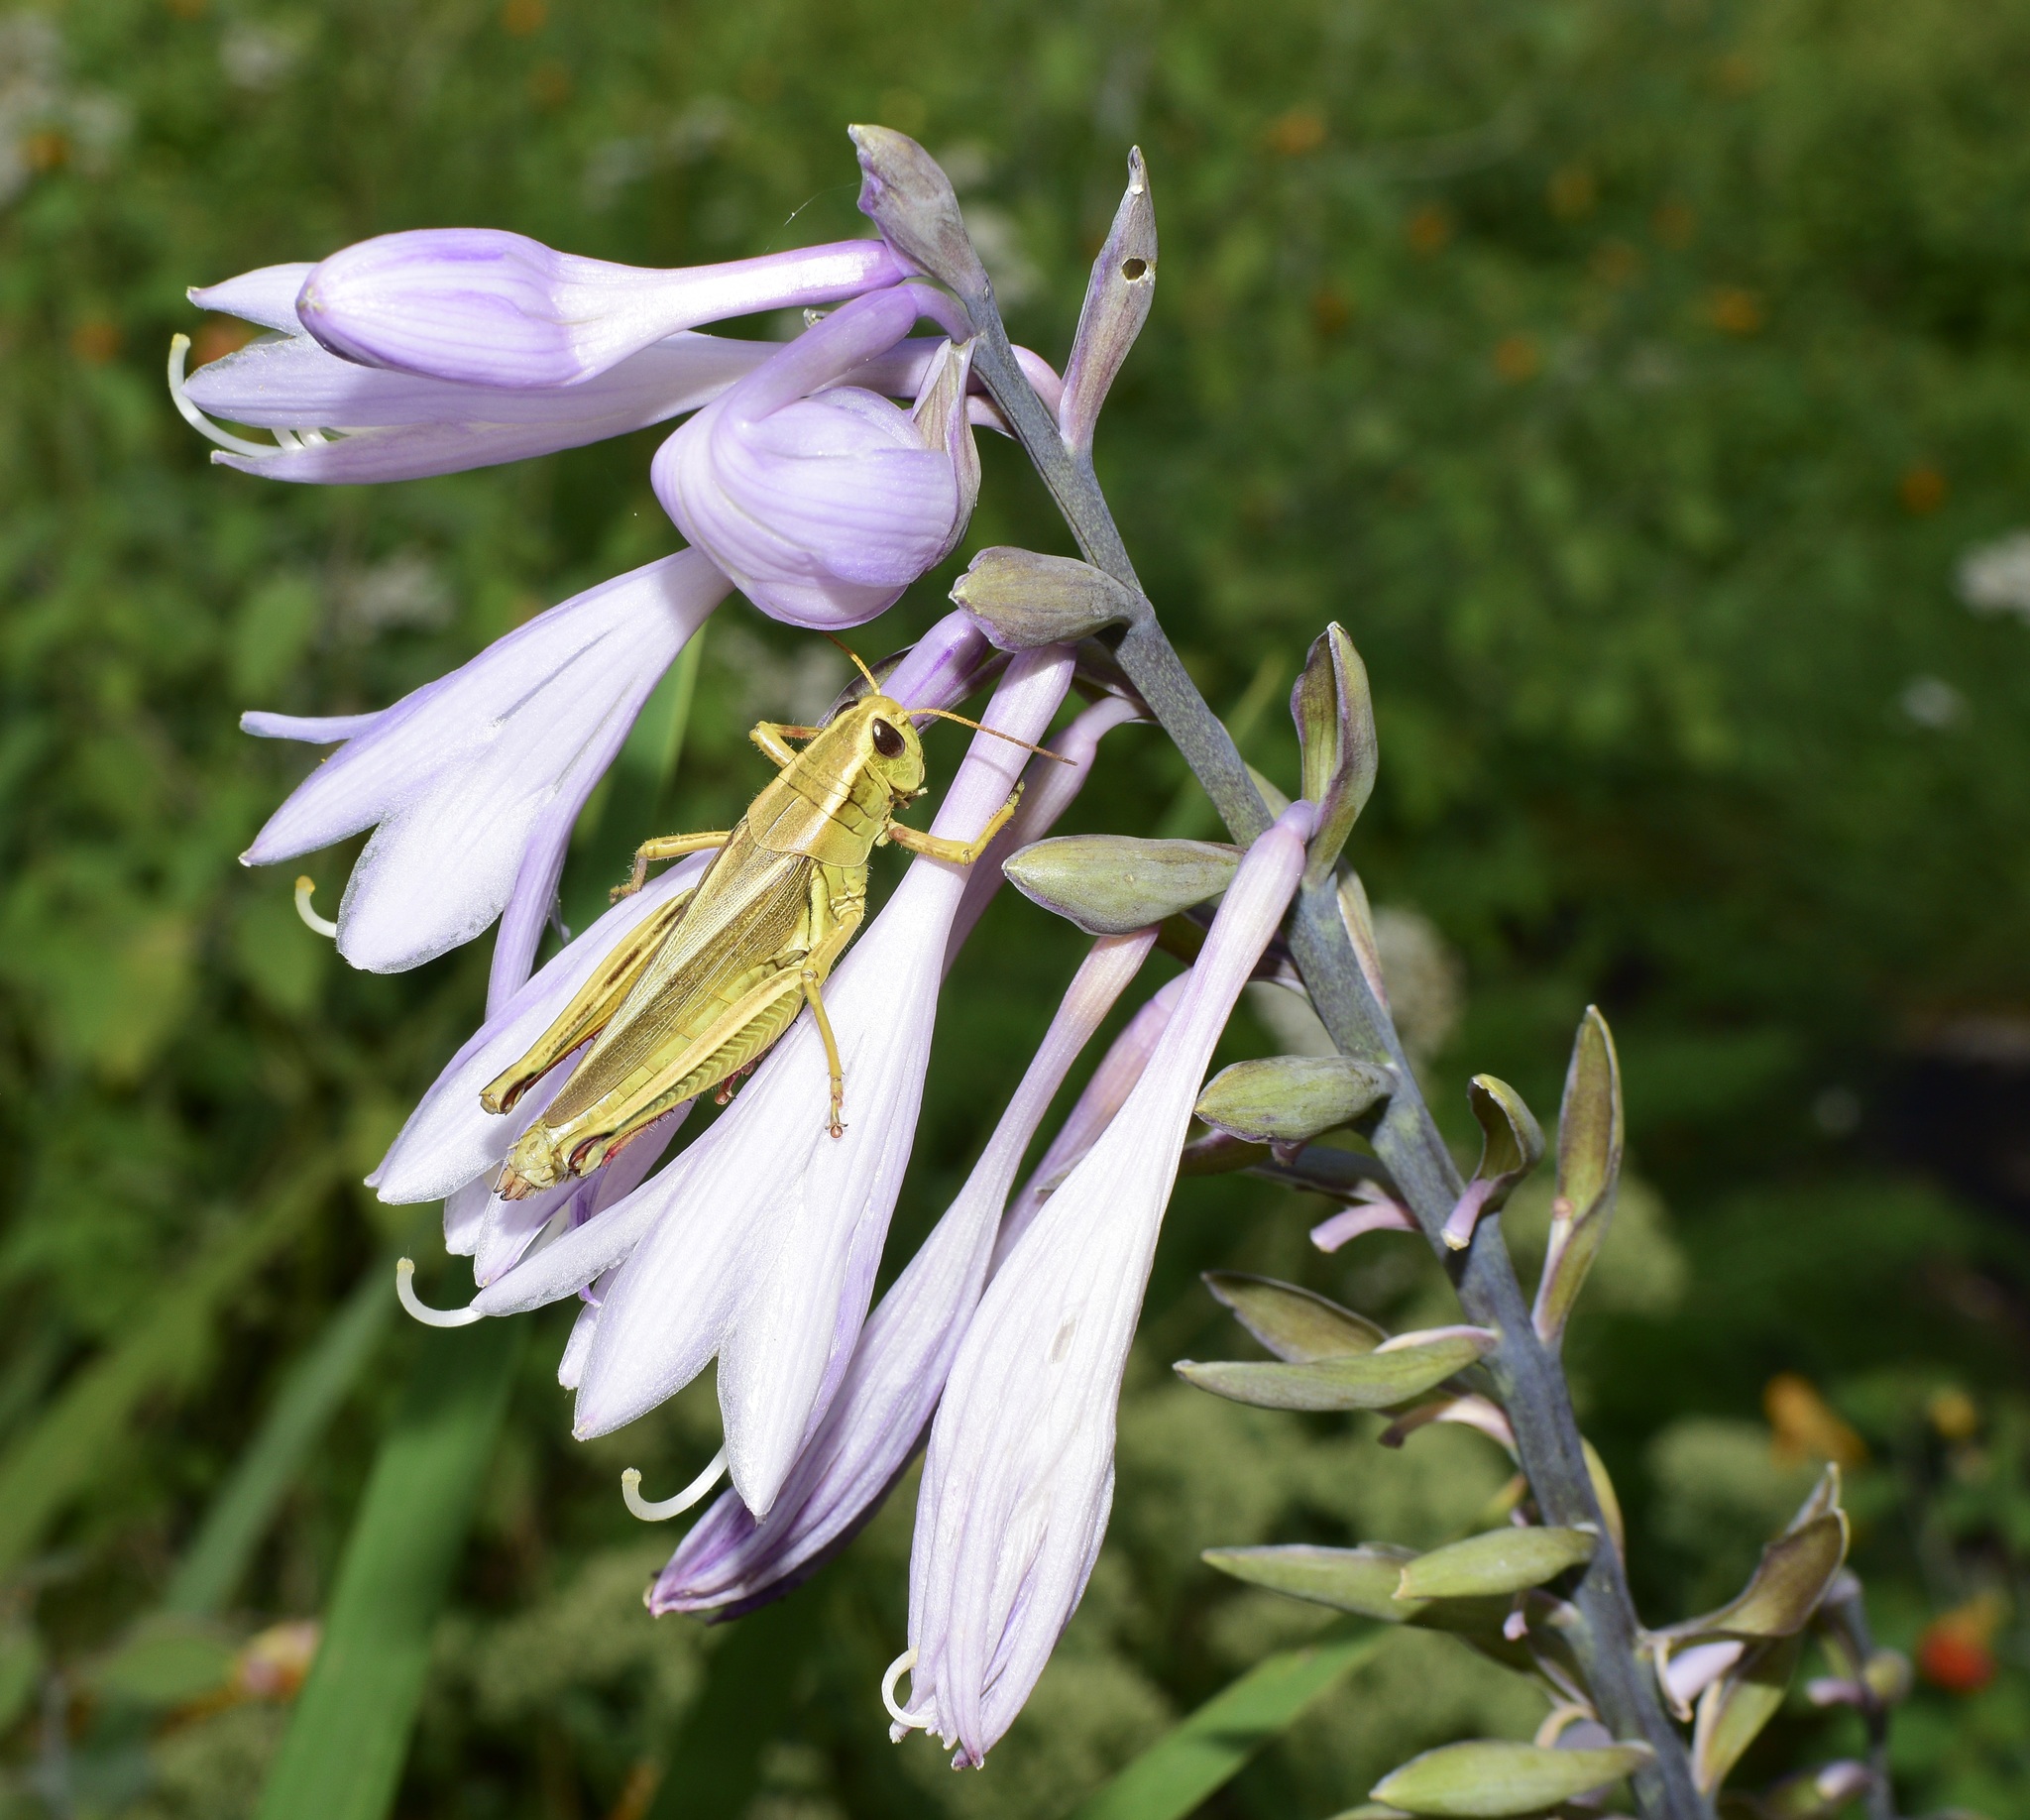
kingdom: Animalia
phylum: Arthropoda
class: Insecta
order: Orthoptera
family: Acrididae
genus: Melanoplus
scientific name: Melanoplus bivittatus
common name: Two-striped grasshopper
